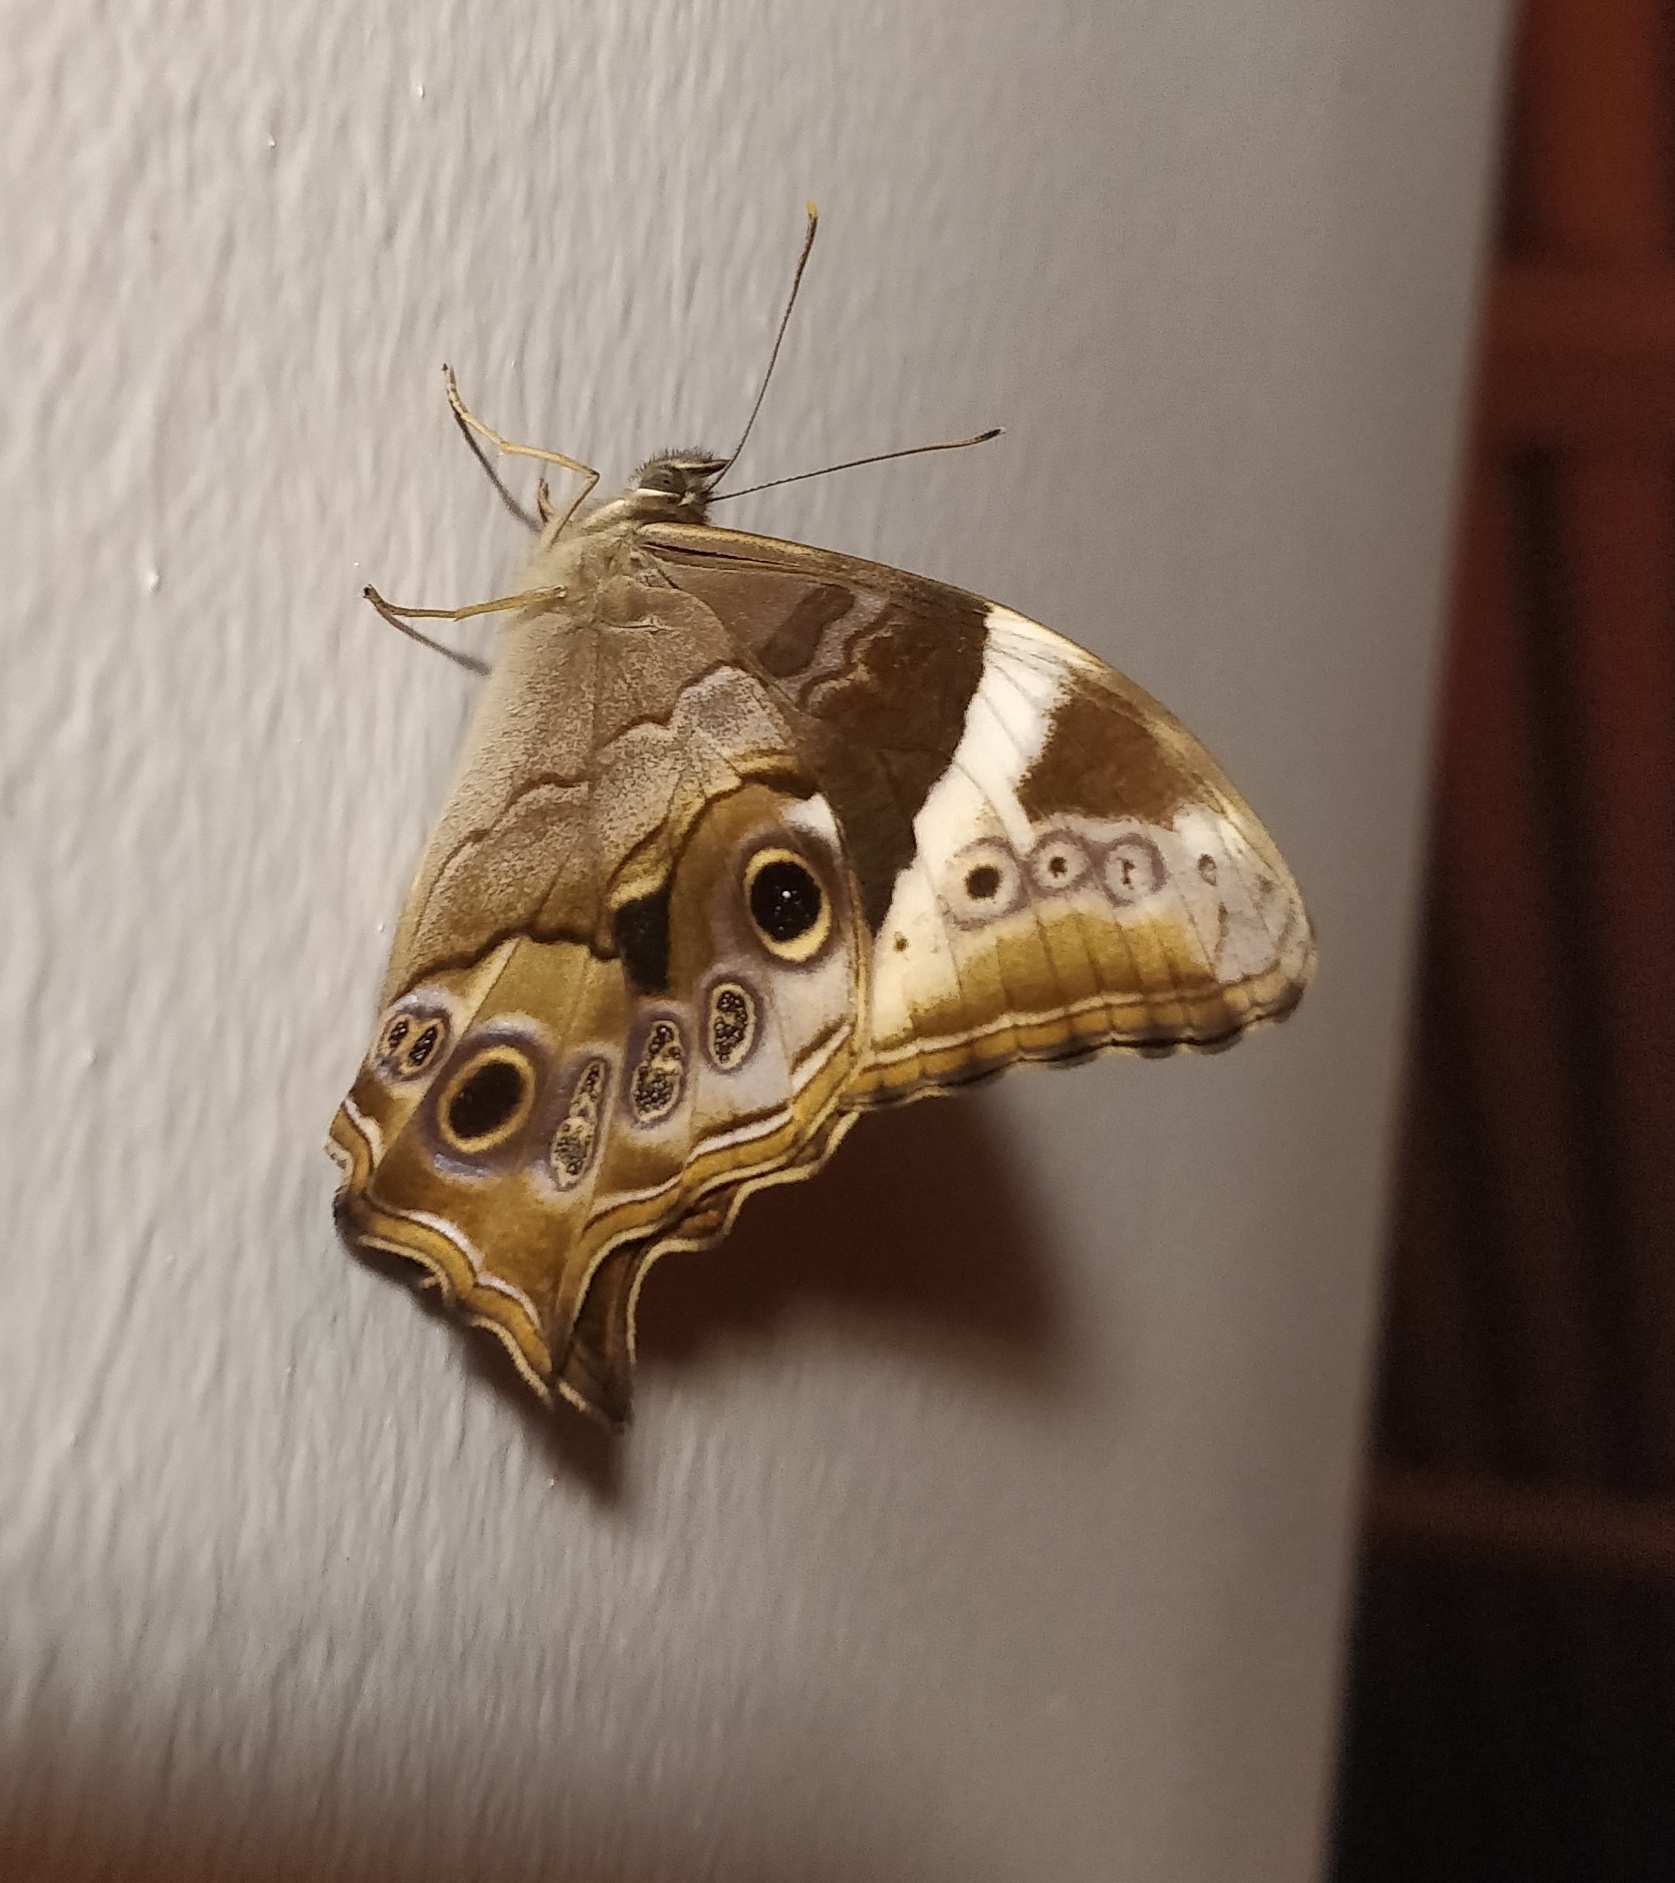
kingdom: Animalia
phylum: Arthropoda
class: Insecta
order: Lepidoptera
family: Nymphalidae
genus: Lethe
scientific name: Lethe rohria
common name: Common treebrown
